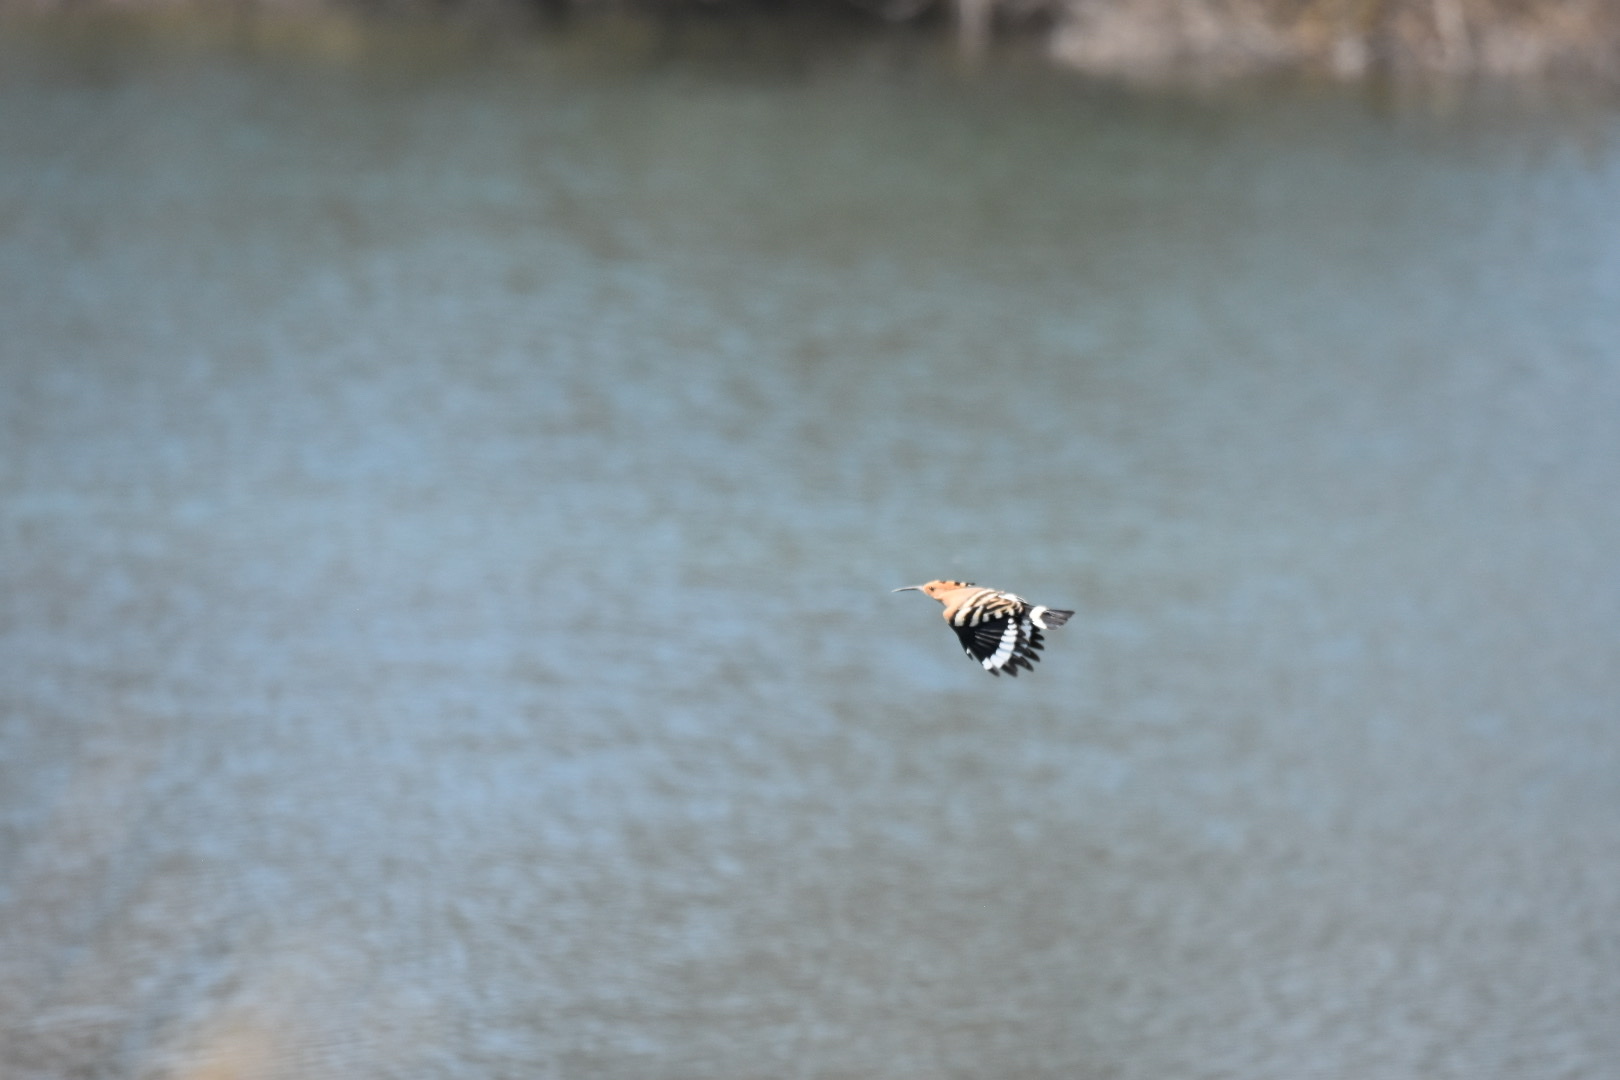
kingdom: Animalia
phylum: Chordata
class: Aves
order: Bucerotiformes
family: Upupidae
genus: Upupa
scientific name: Upupa epops
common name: Eurasian hoopoe
